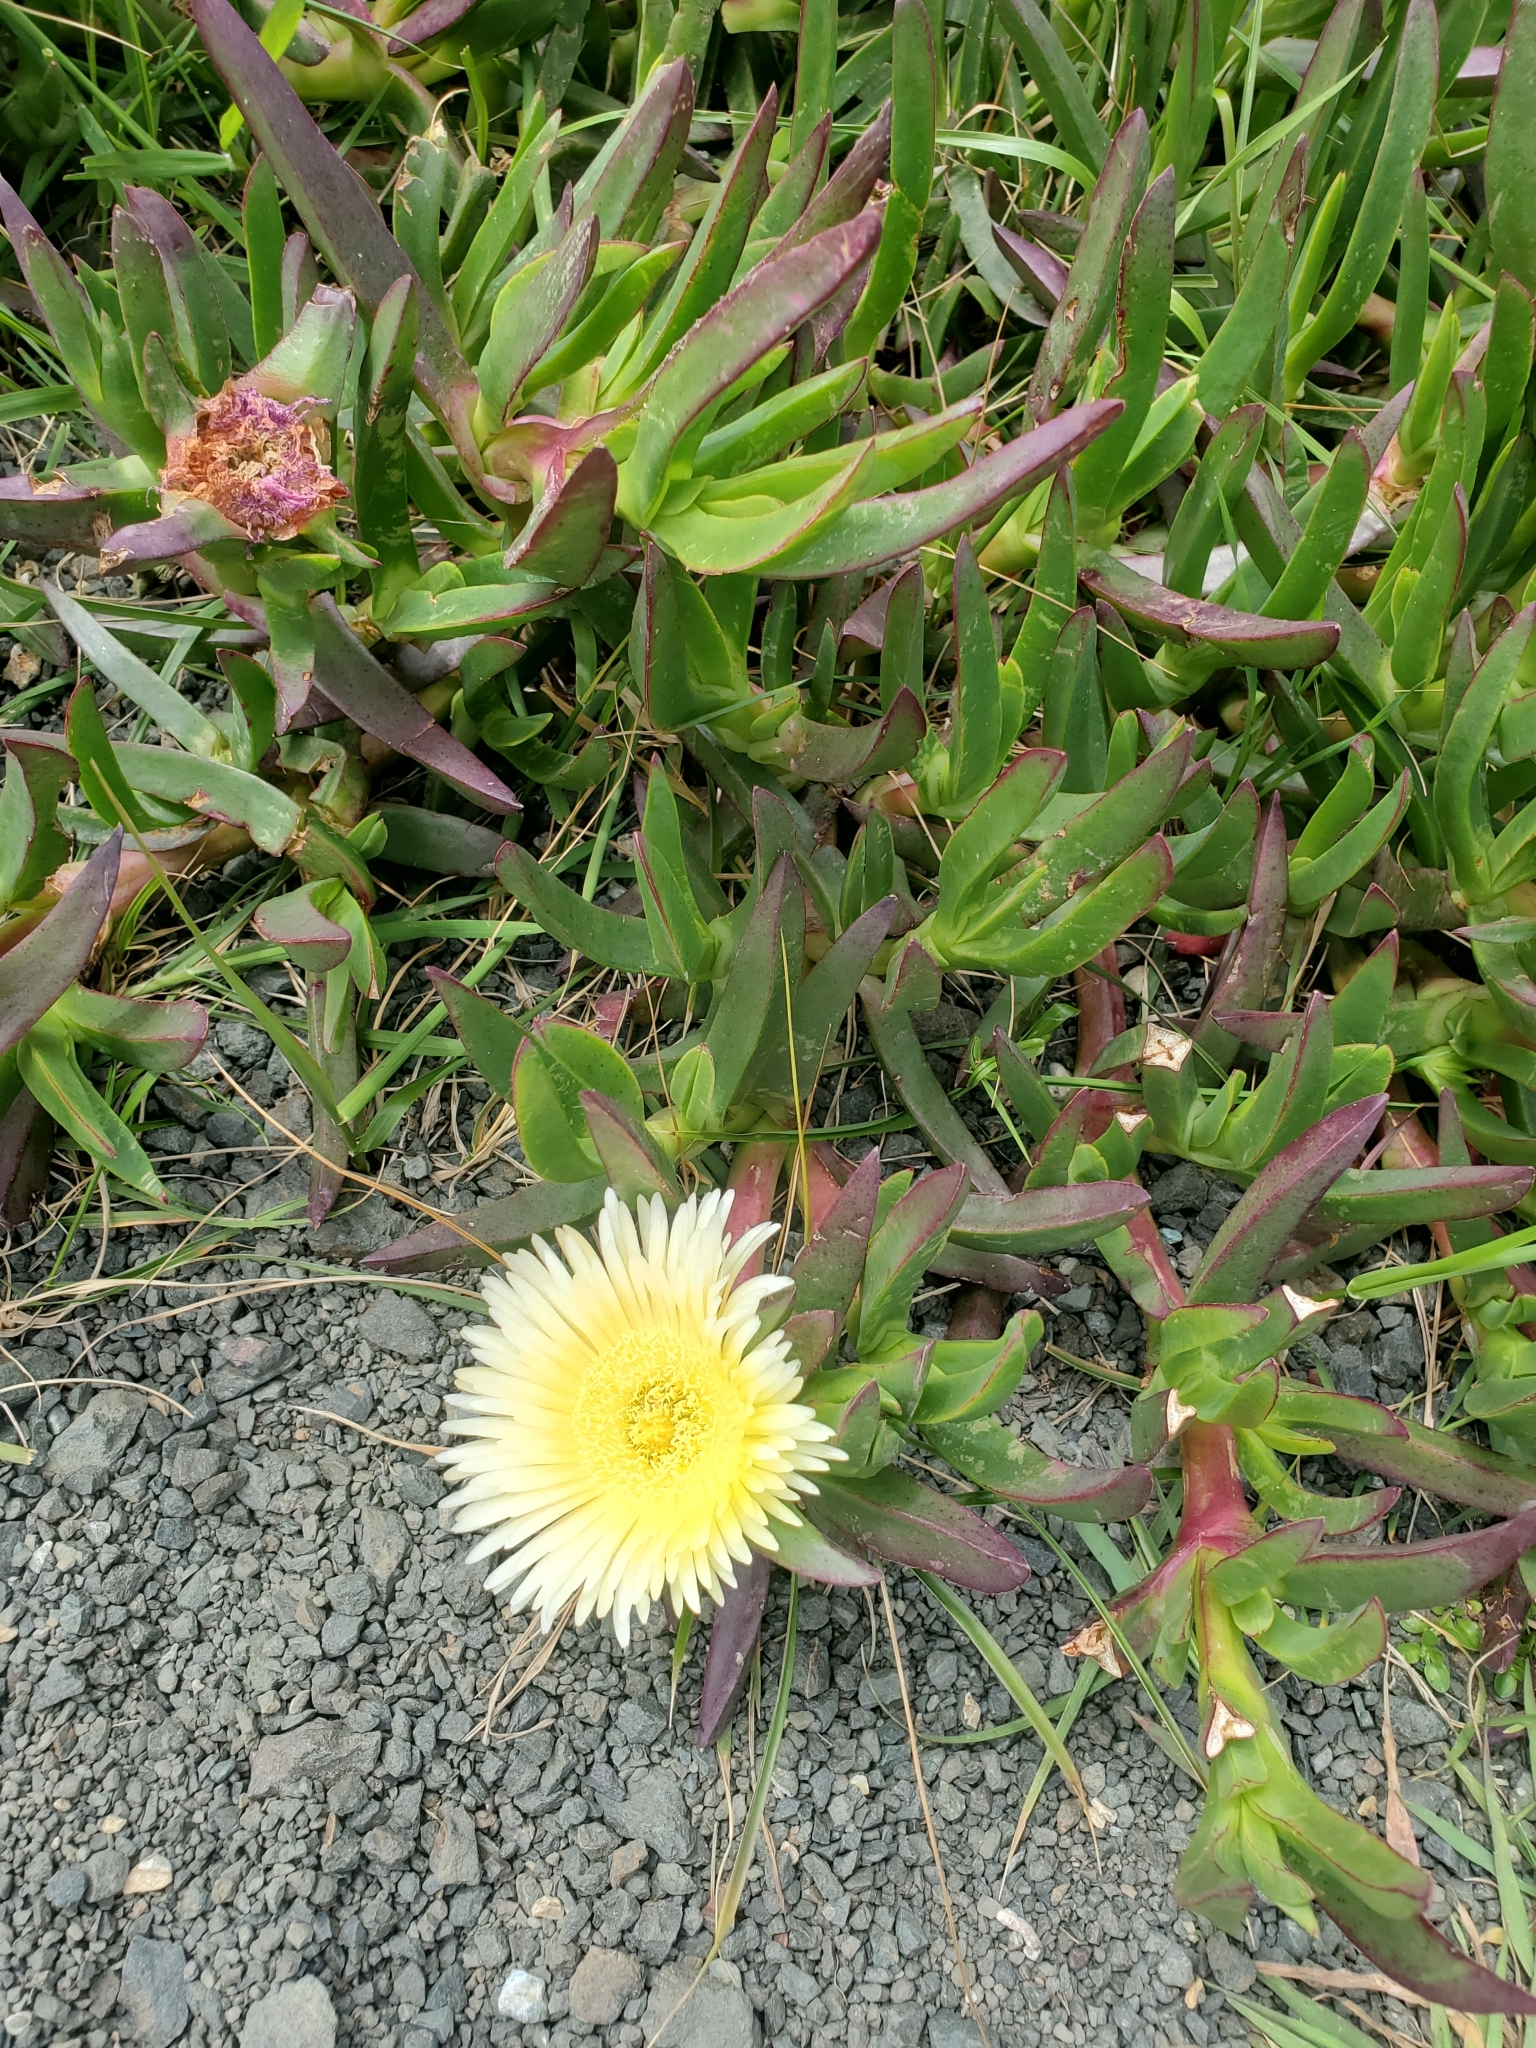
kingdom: Plantae
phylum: Tracheophyta
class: Magnoliopsida
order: Caryophyllales
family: Aizoaceae
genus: Carpobrotus
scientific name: Carpobrotus edulis
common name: Hottentot-fig
